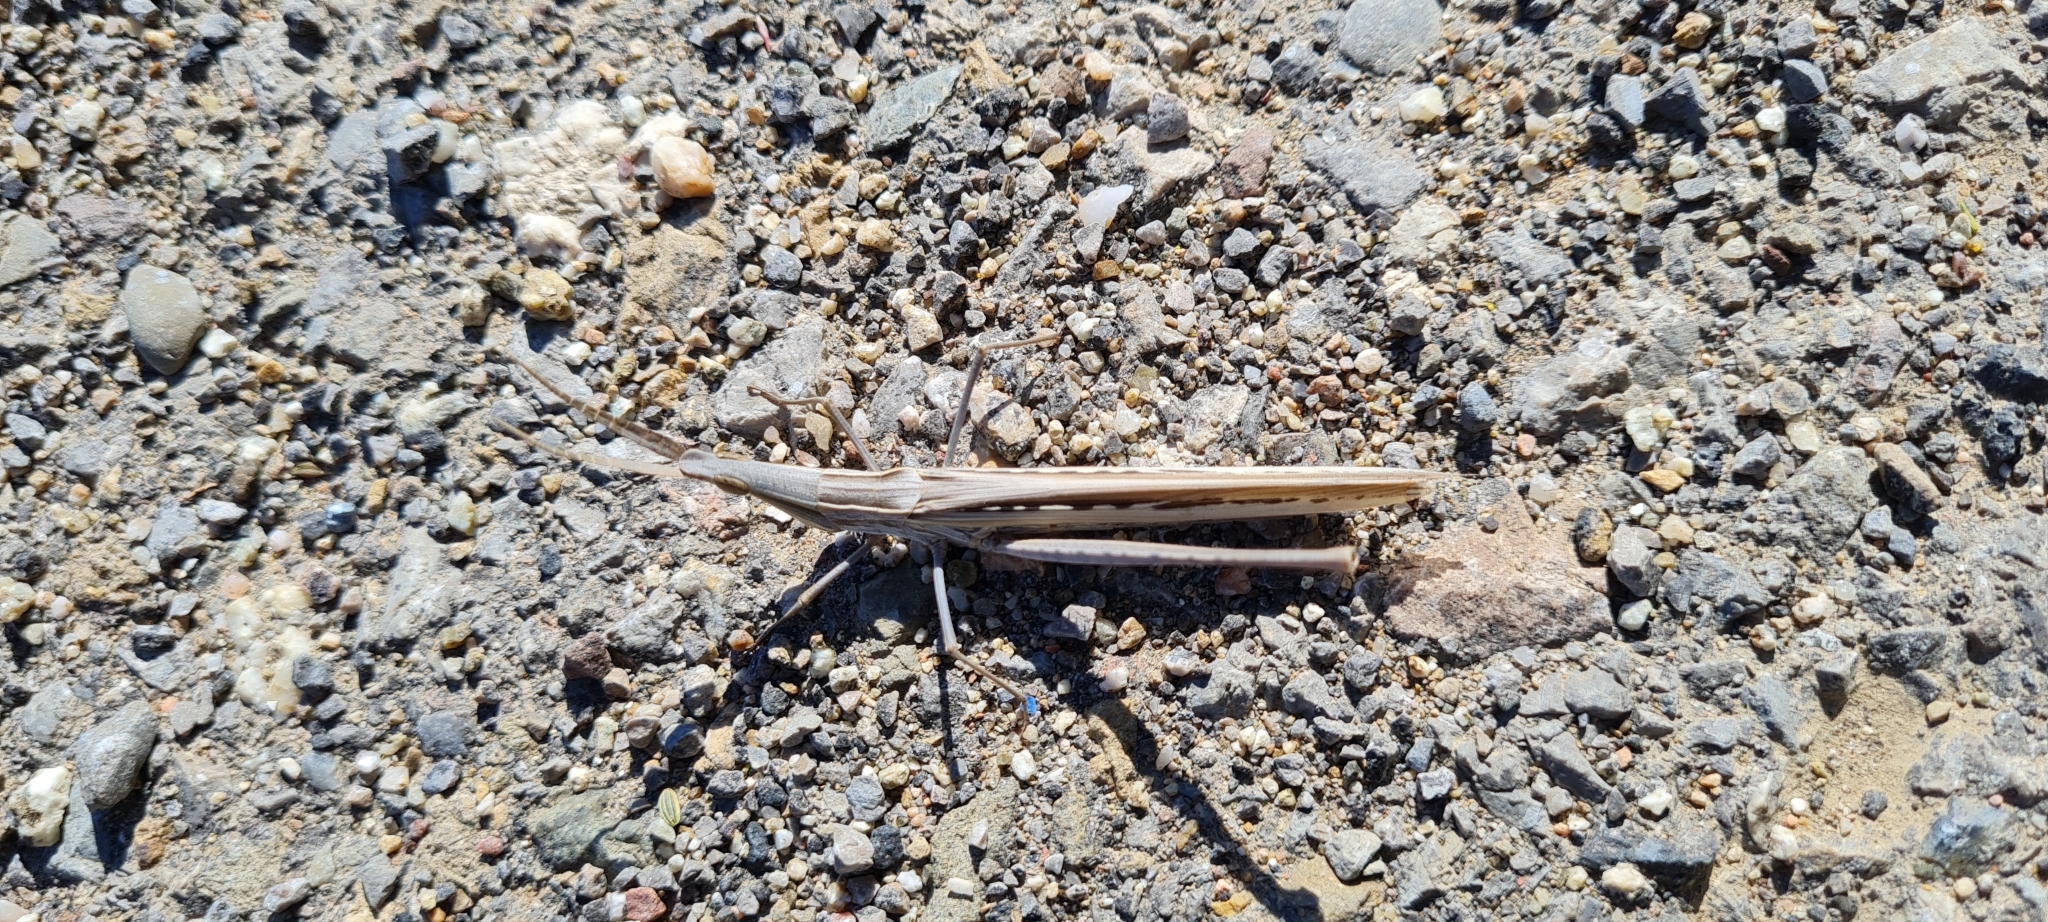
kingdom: Animalia
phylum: Arthropoda
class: Insecta
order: Orthoptera
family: Acrididae
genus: Acrida
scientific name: Acrida ungarica
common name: Common cone-headed grasshopper
